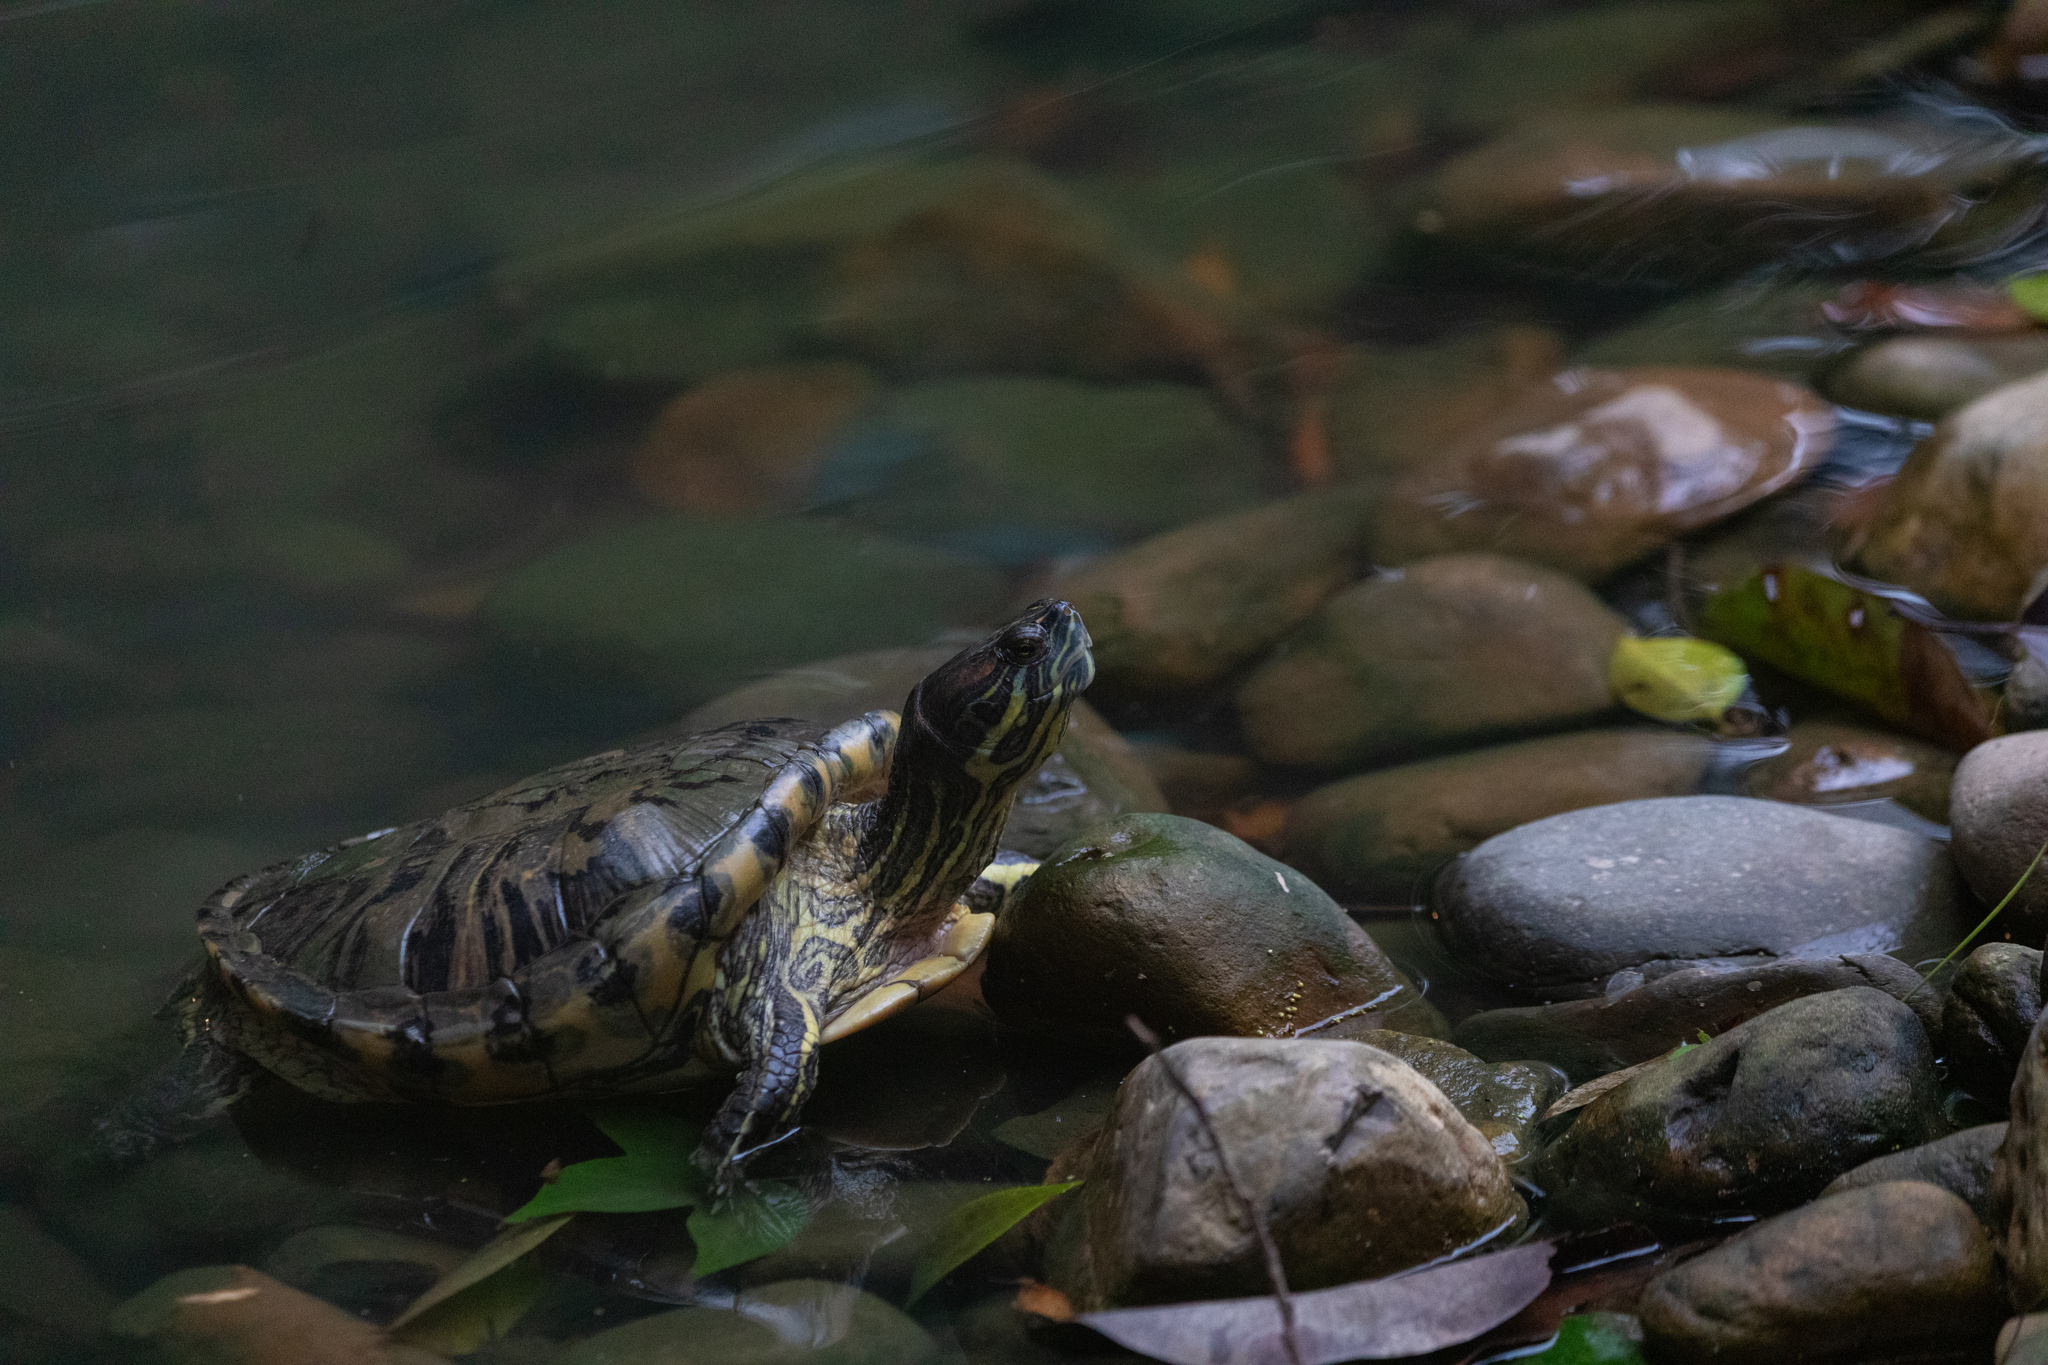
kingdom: Animalia
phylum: Chordata
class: Testudines
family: Emydidae
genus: Trachemys
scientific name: Trachemys scripta
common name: Slider
